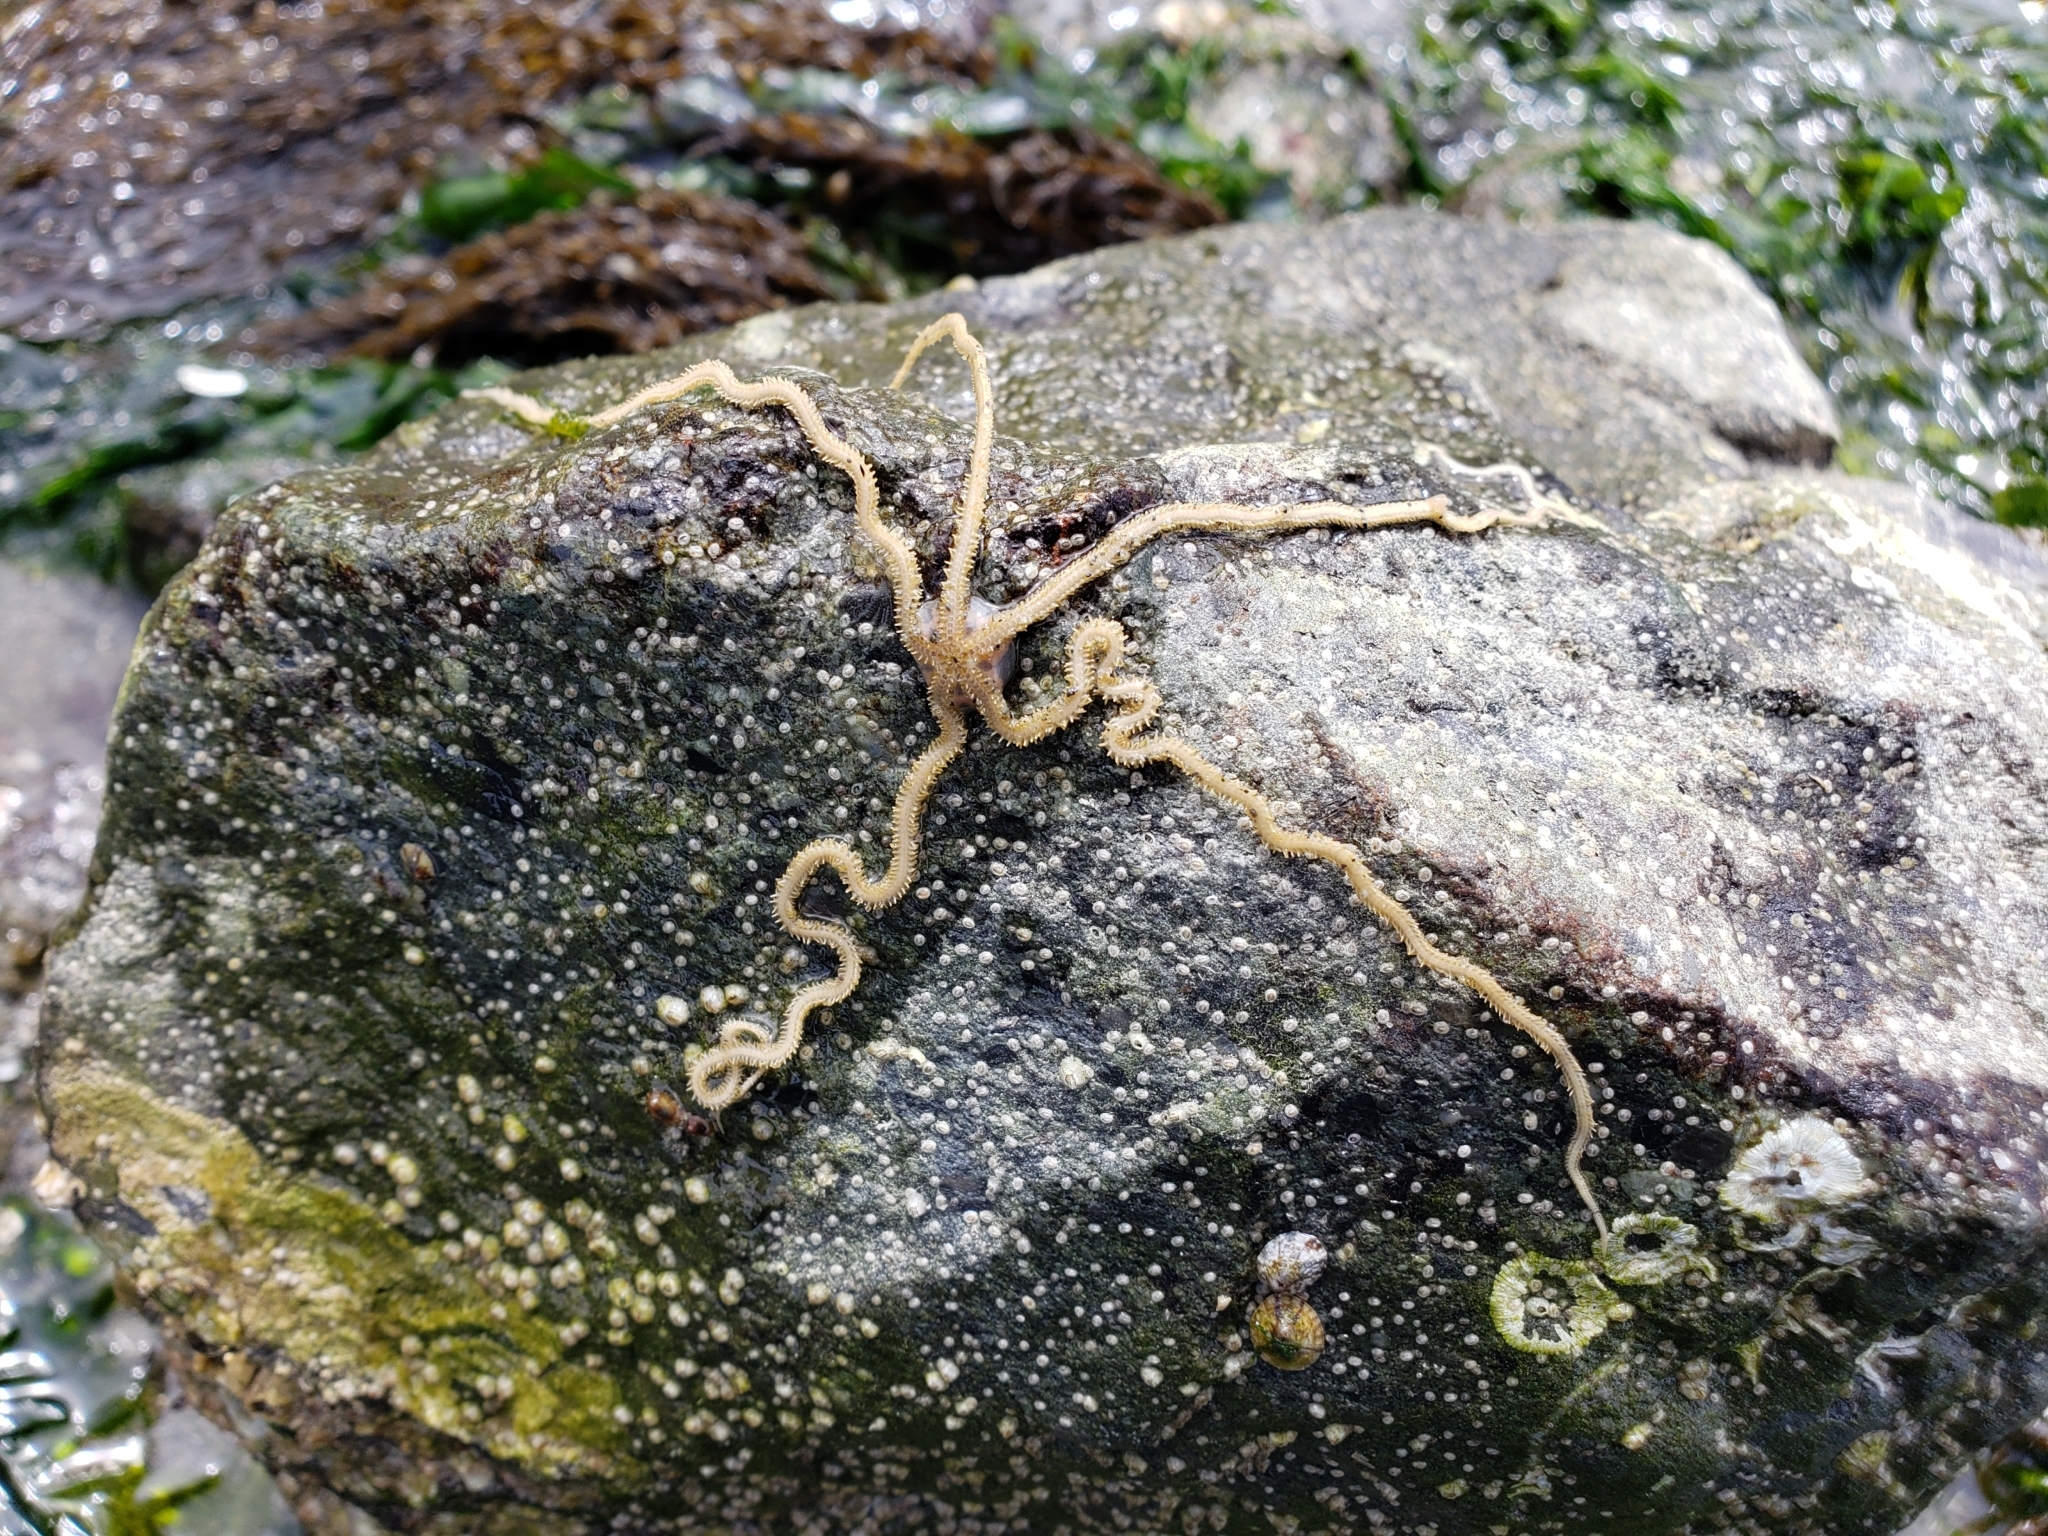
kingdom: Animalia
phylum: Echinodermata
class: Ophiuroidea
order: Amphilepidida
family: Amphiuridae
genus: Amphiodia
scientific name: Amphiodia occidentalis
